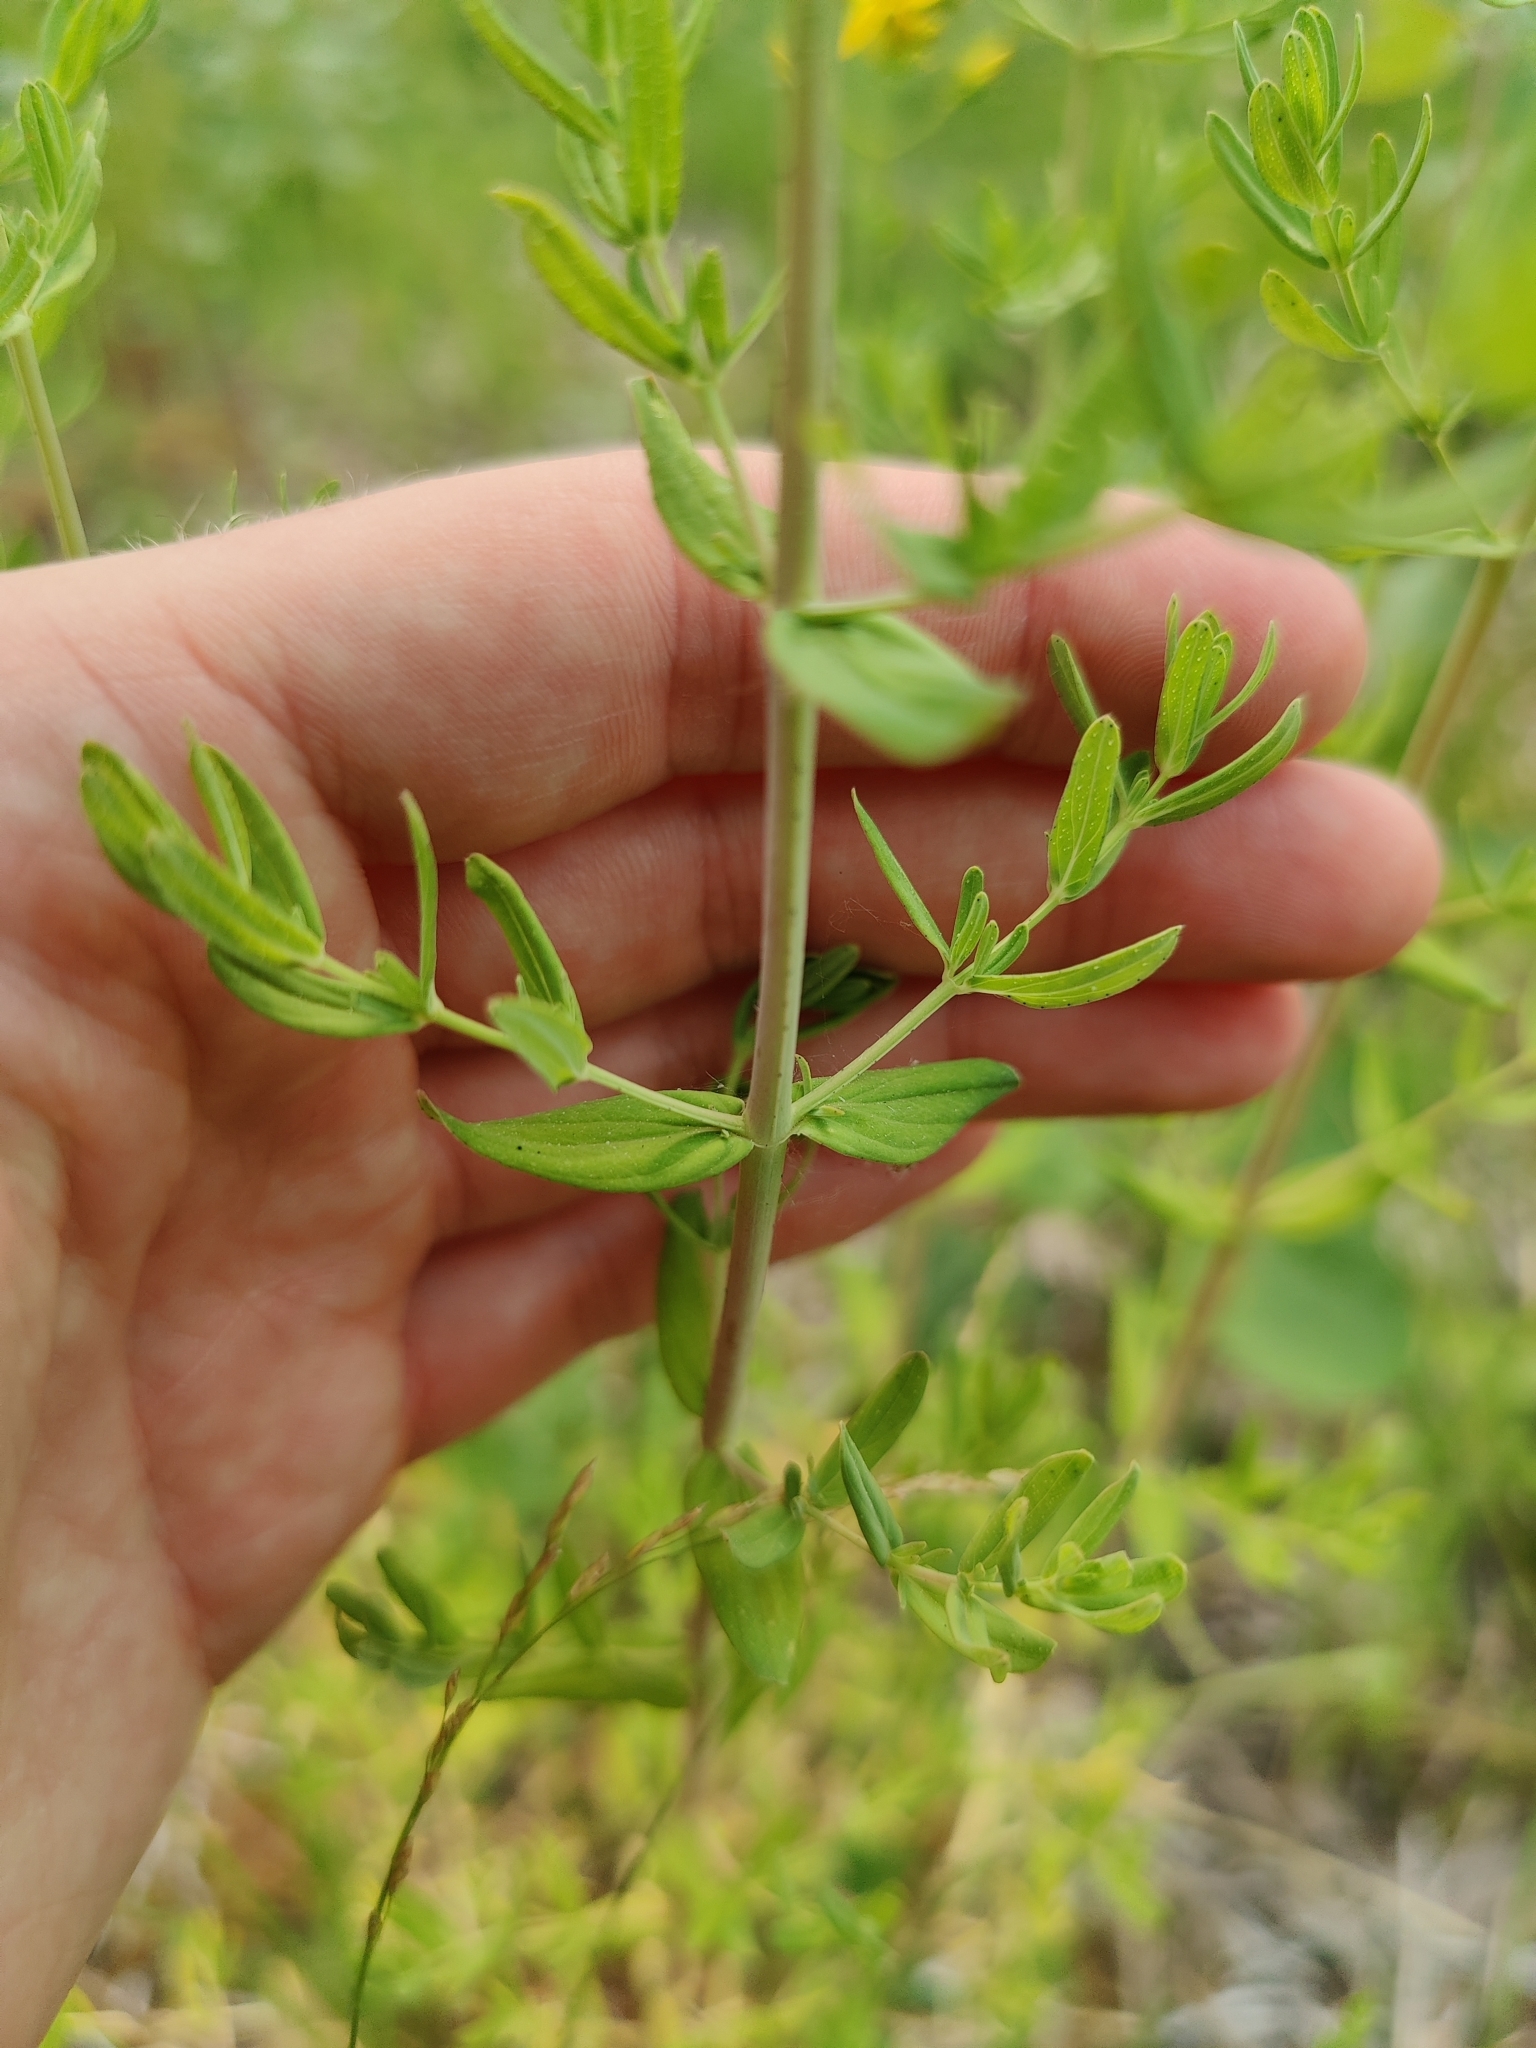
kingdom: Plantae
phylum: Tracheophyta
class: Magnoliopsida
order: Malpighiales
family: Hypericaceae
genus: Hypericum
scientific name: Hypericum perforatum
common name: Common st. johnswort
